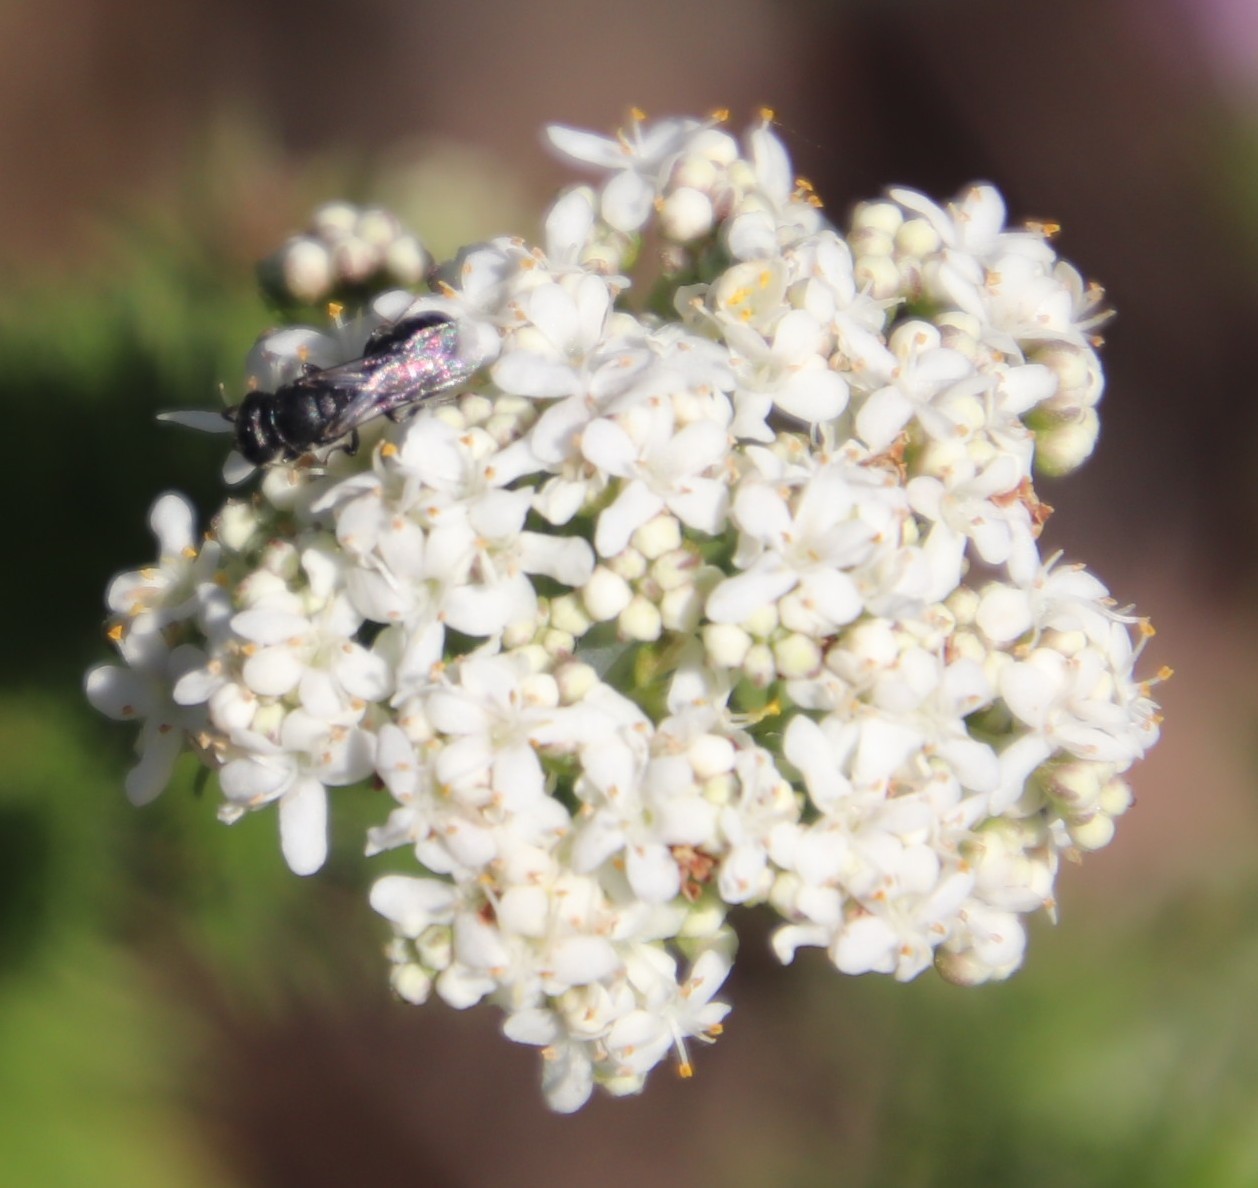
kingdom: Plantae
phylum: Tracheophyta
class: Magnoliopsida
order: Lamiales
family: Scrophulariaceae
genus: Selago
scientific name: Selago corymbosa
